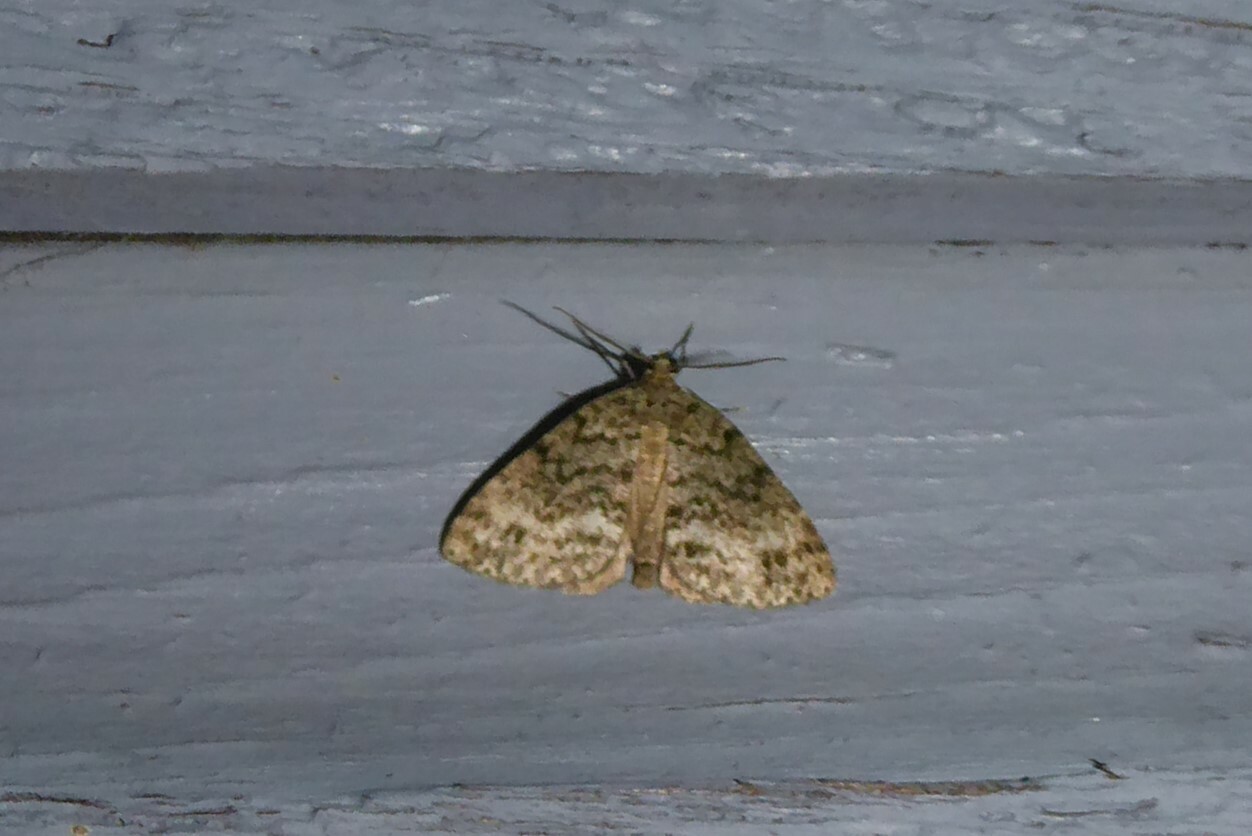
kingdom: Animalia
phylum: Arthropoda
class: Insecta
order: Lepidoptera
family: Geometridae
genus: Pseudocoremia
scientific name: Pseudocoremia indistincta
